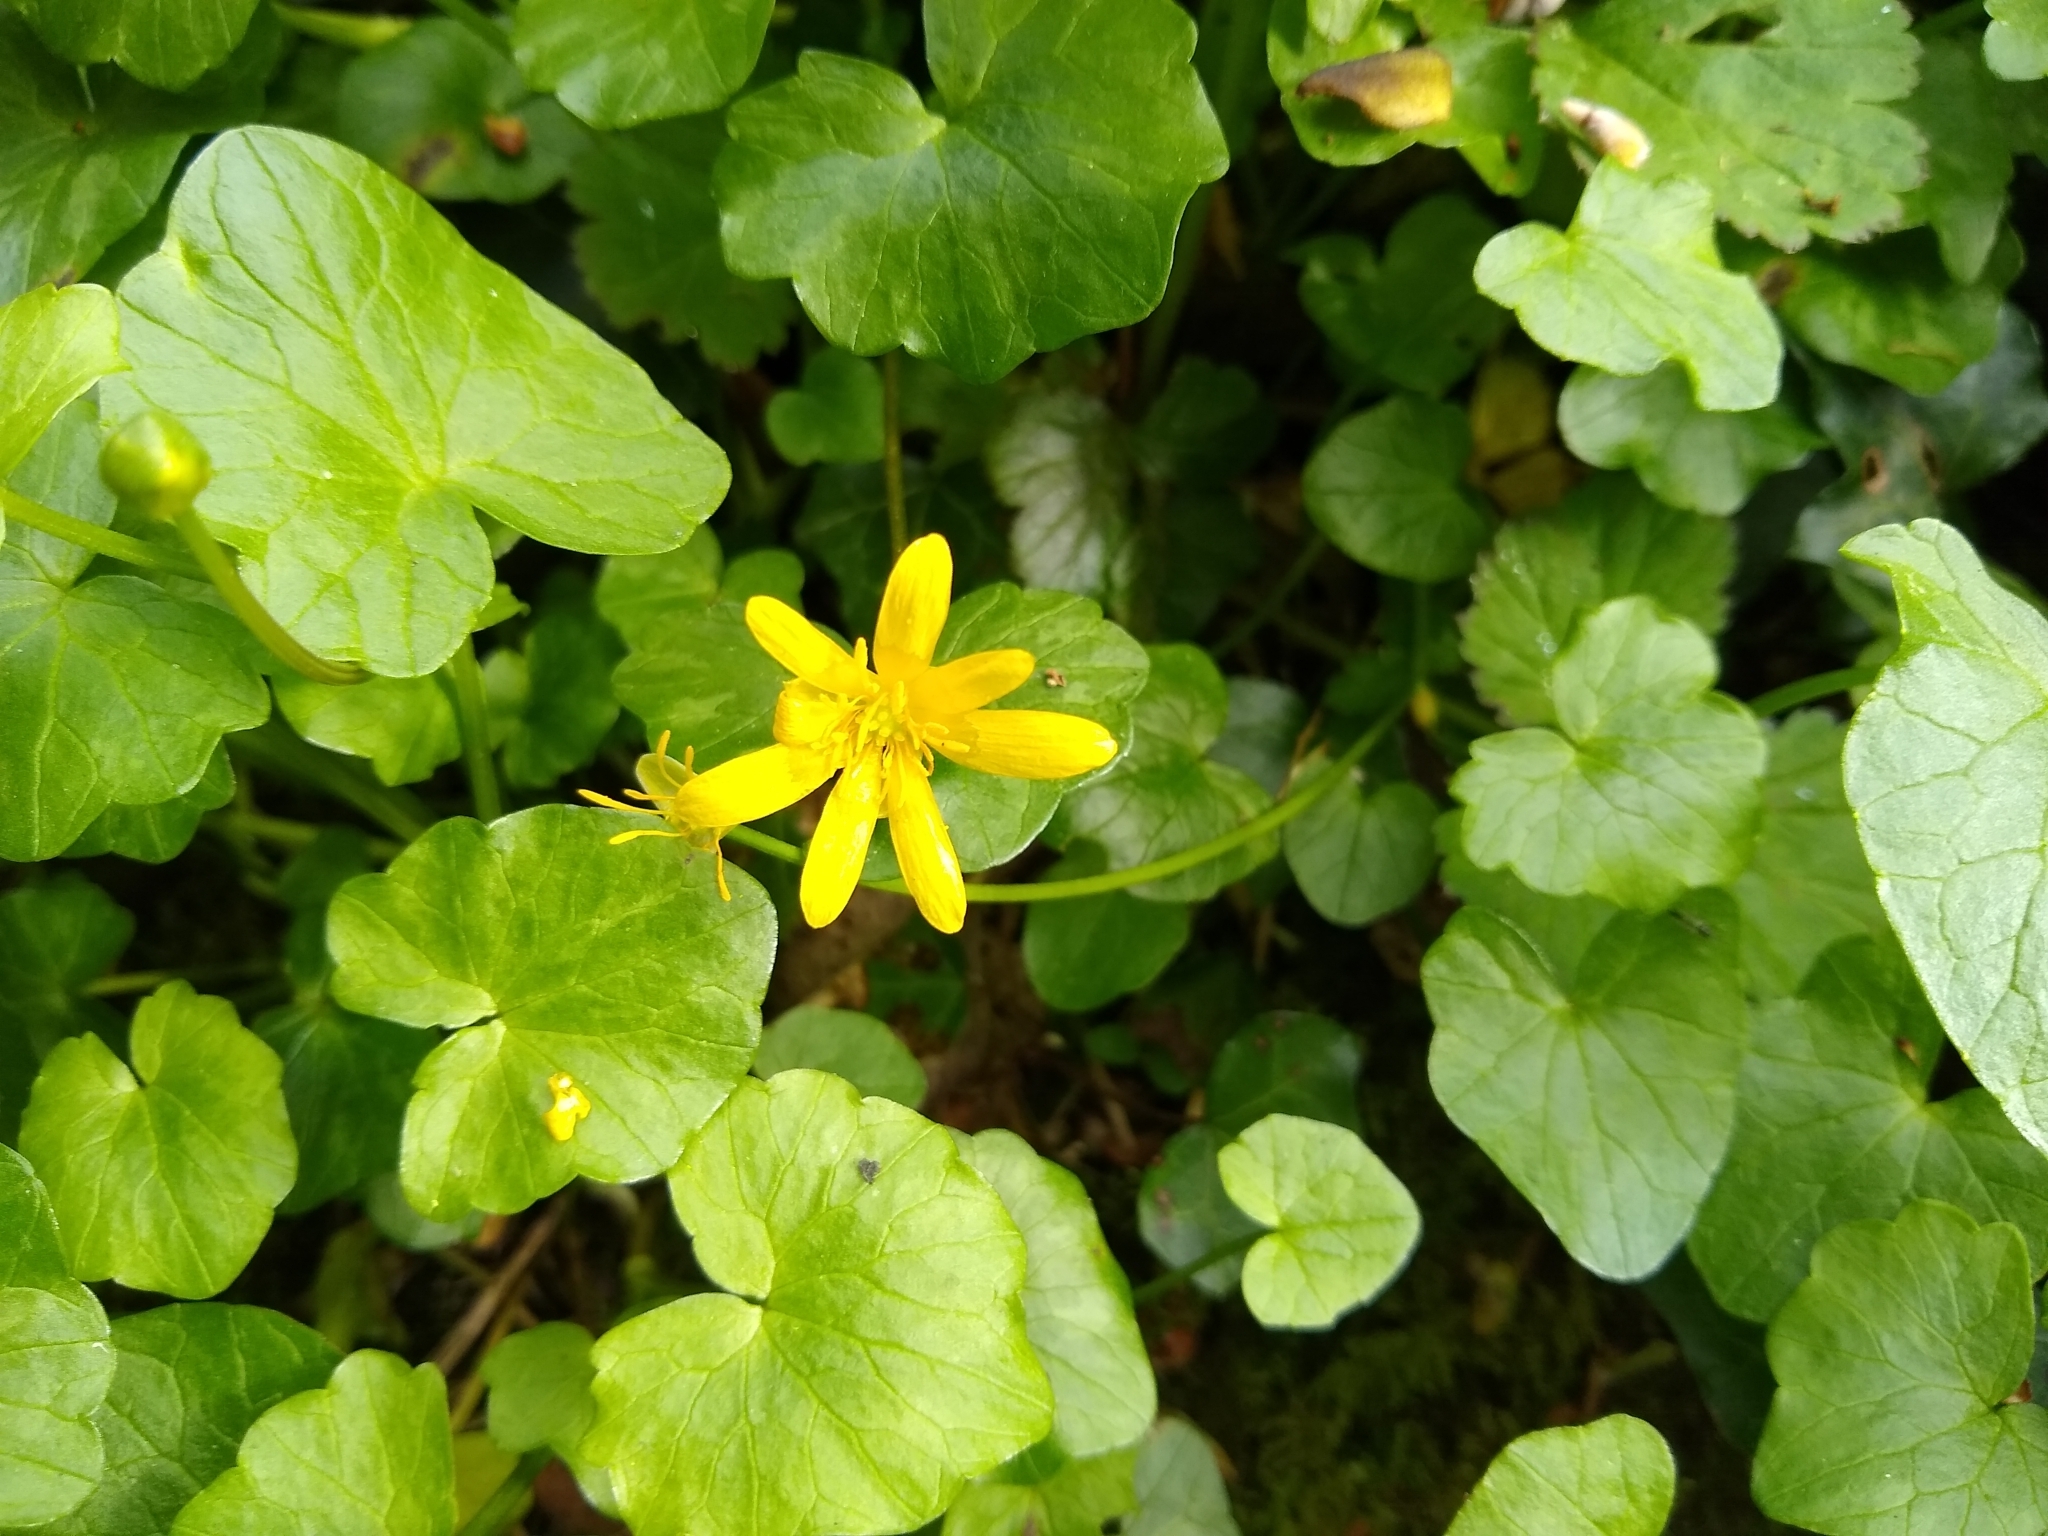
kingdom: Plantae
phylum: Tracheophyta
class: Magnoliopsida
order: Ranunculales
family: Ranunculaceae
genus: Ficaria
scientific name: Ficaria verna
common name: Lesser celandine
